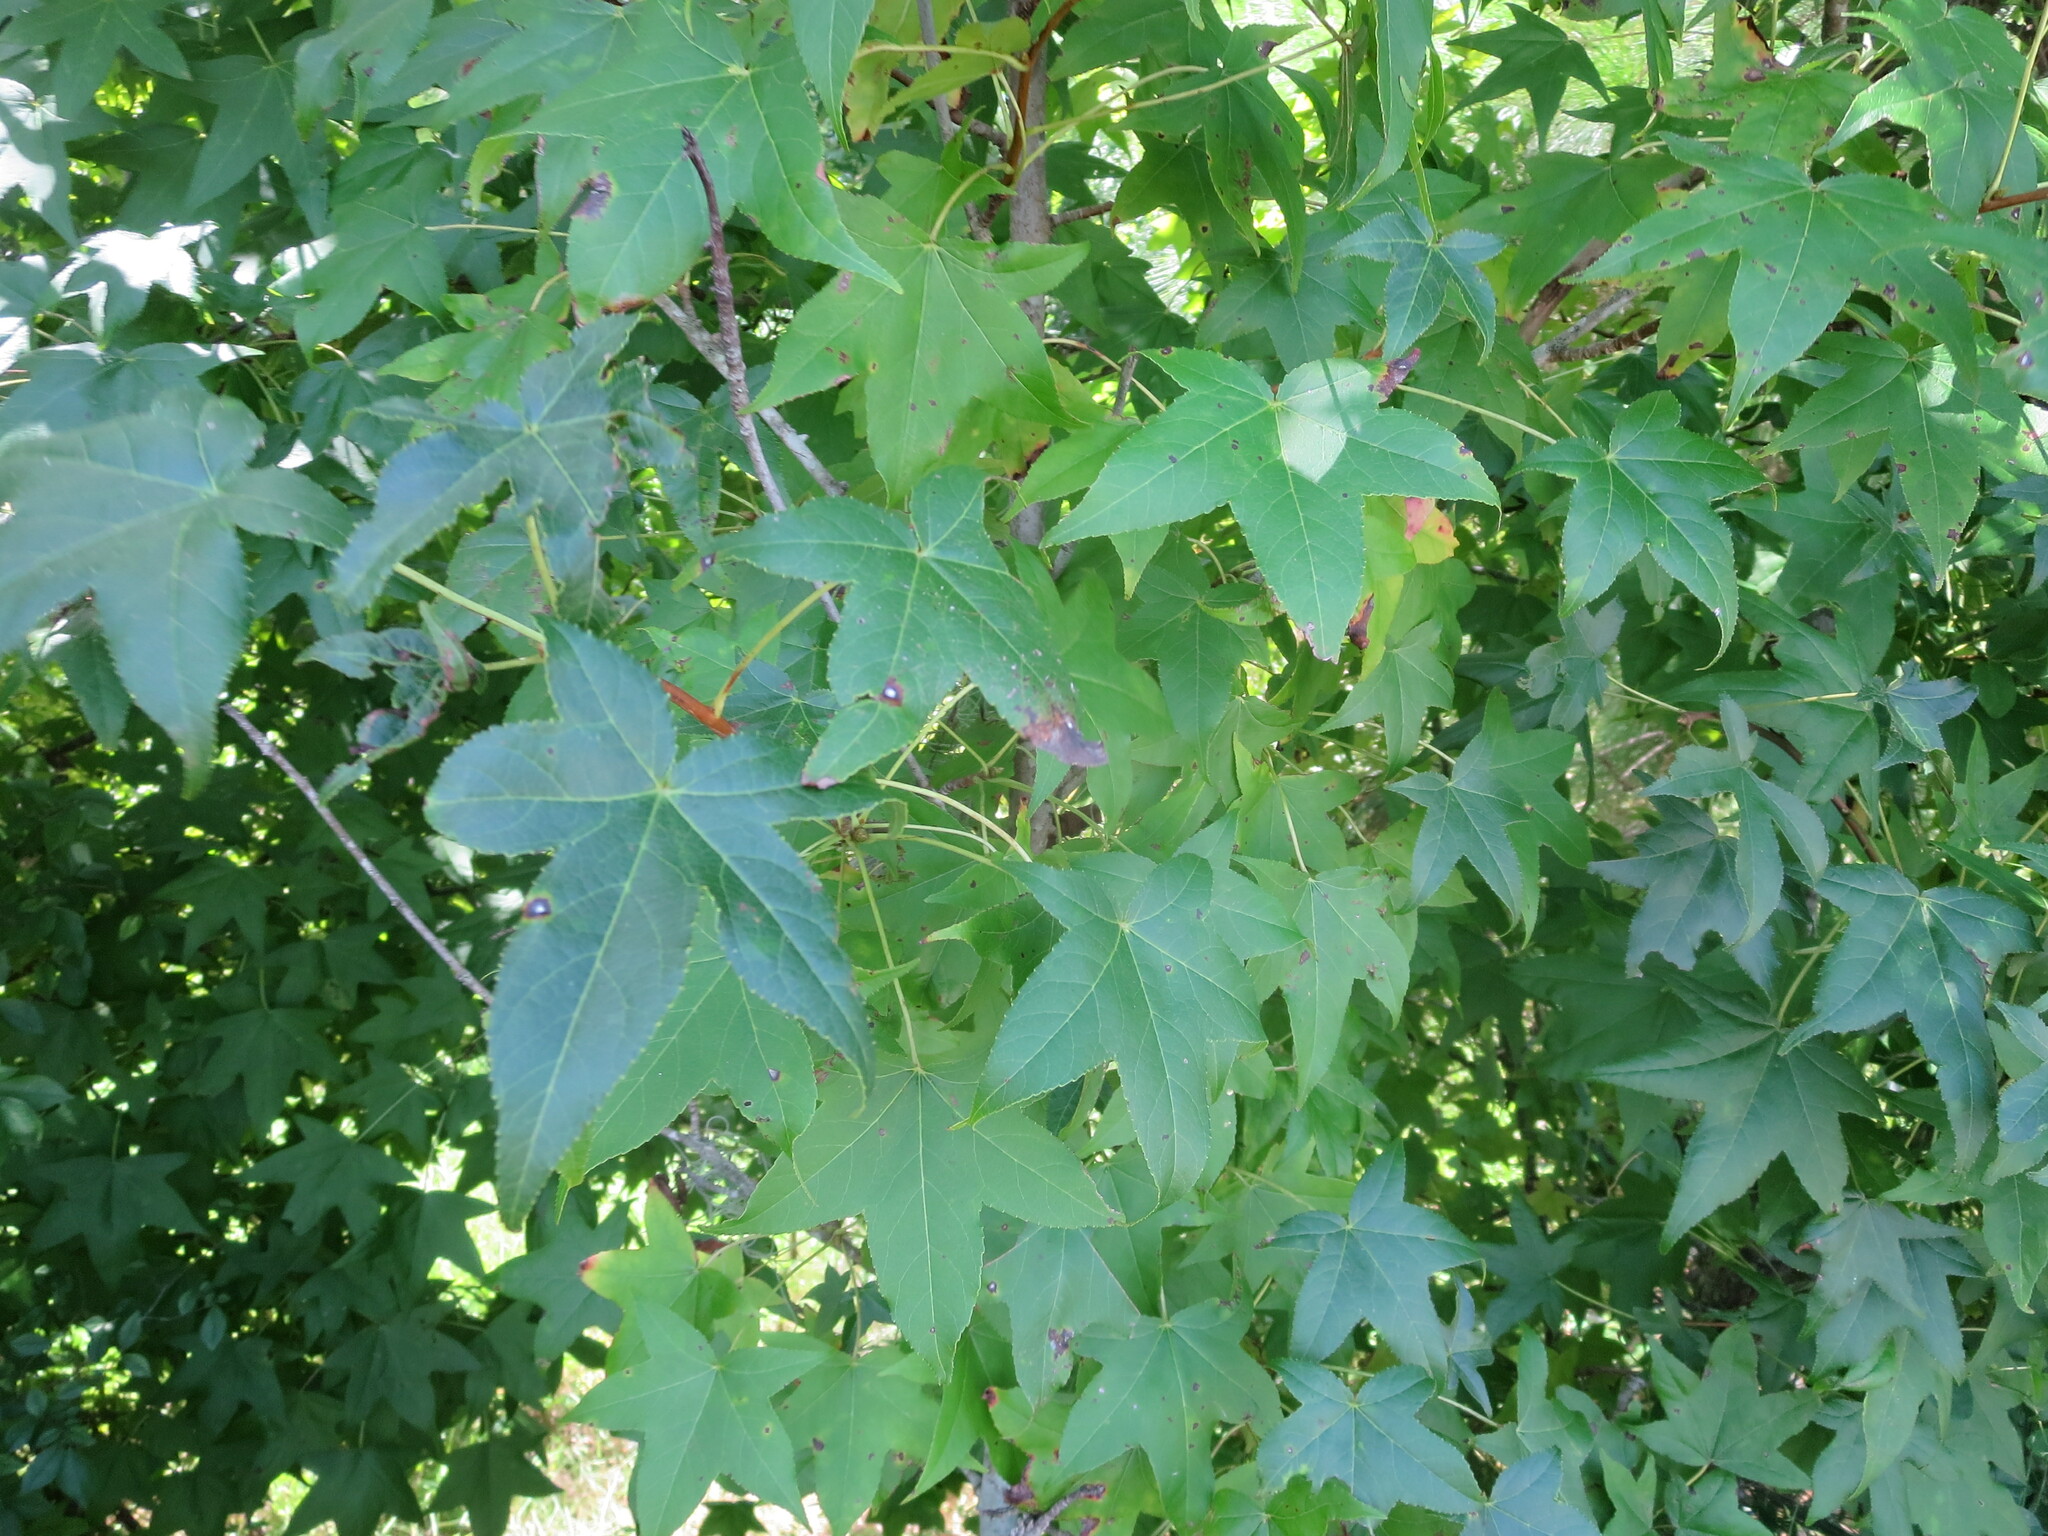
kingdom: Plantae
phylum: Tracheophyta
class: Magnoliopsida
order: Saxifragales
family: Altingiaceae
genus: Liquidambar
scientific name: Liquidambar styraciflua
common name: Sweet gum
